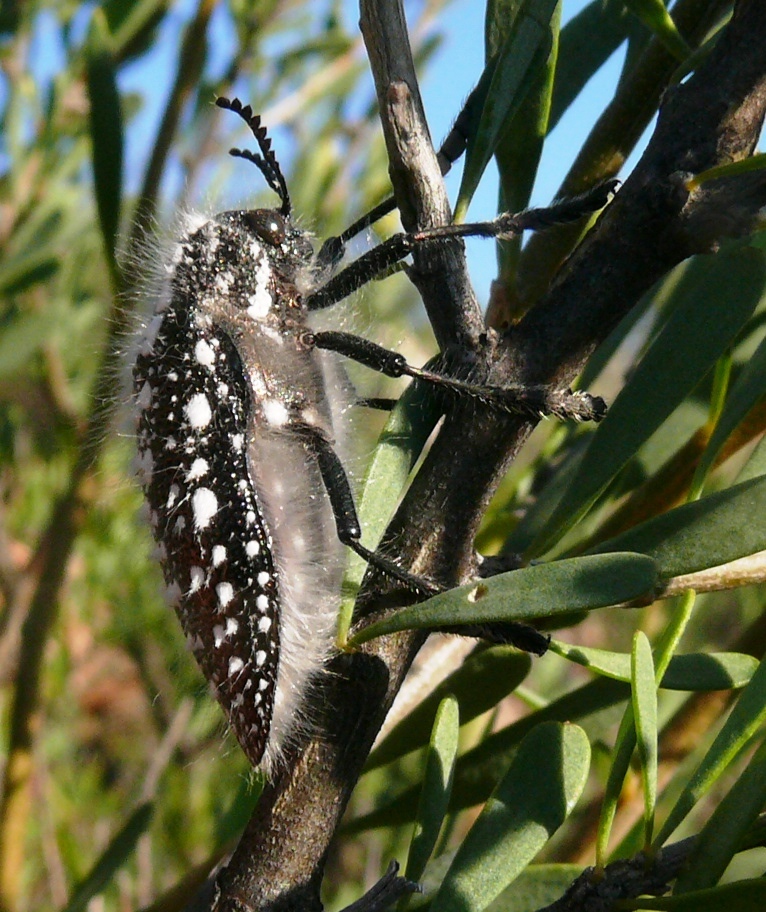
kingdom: Animalia
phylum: Arthropoda
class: Insecta
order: Coleoptera
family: Buprestidae
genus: Julodis
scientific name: Julodis recenta
